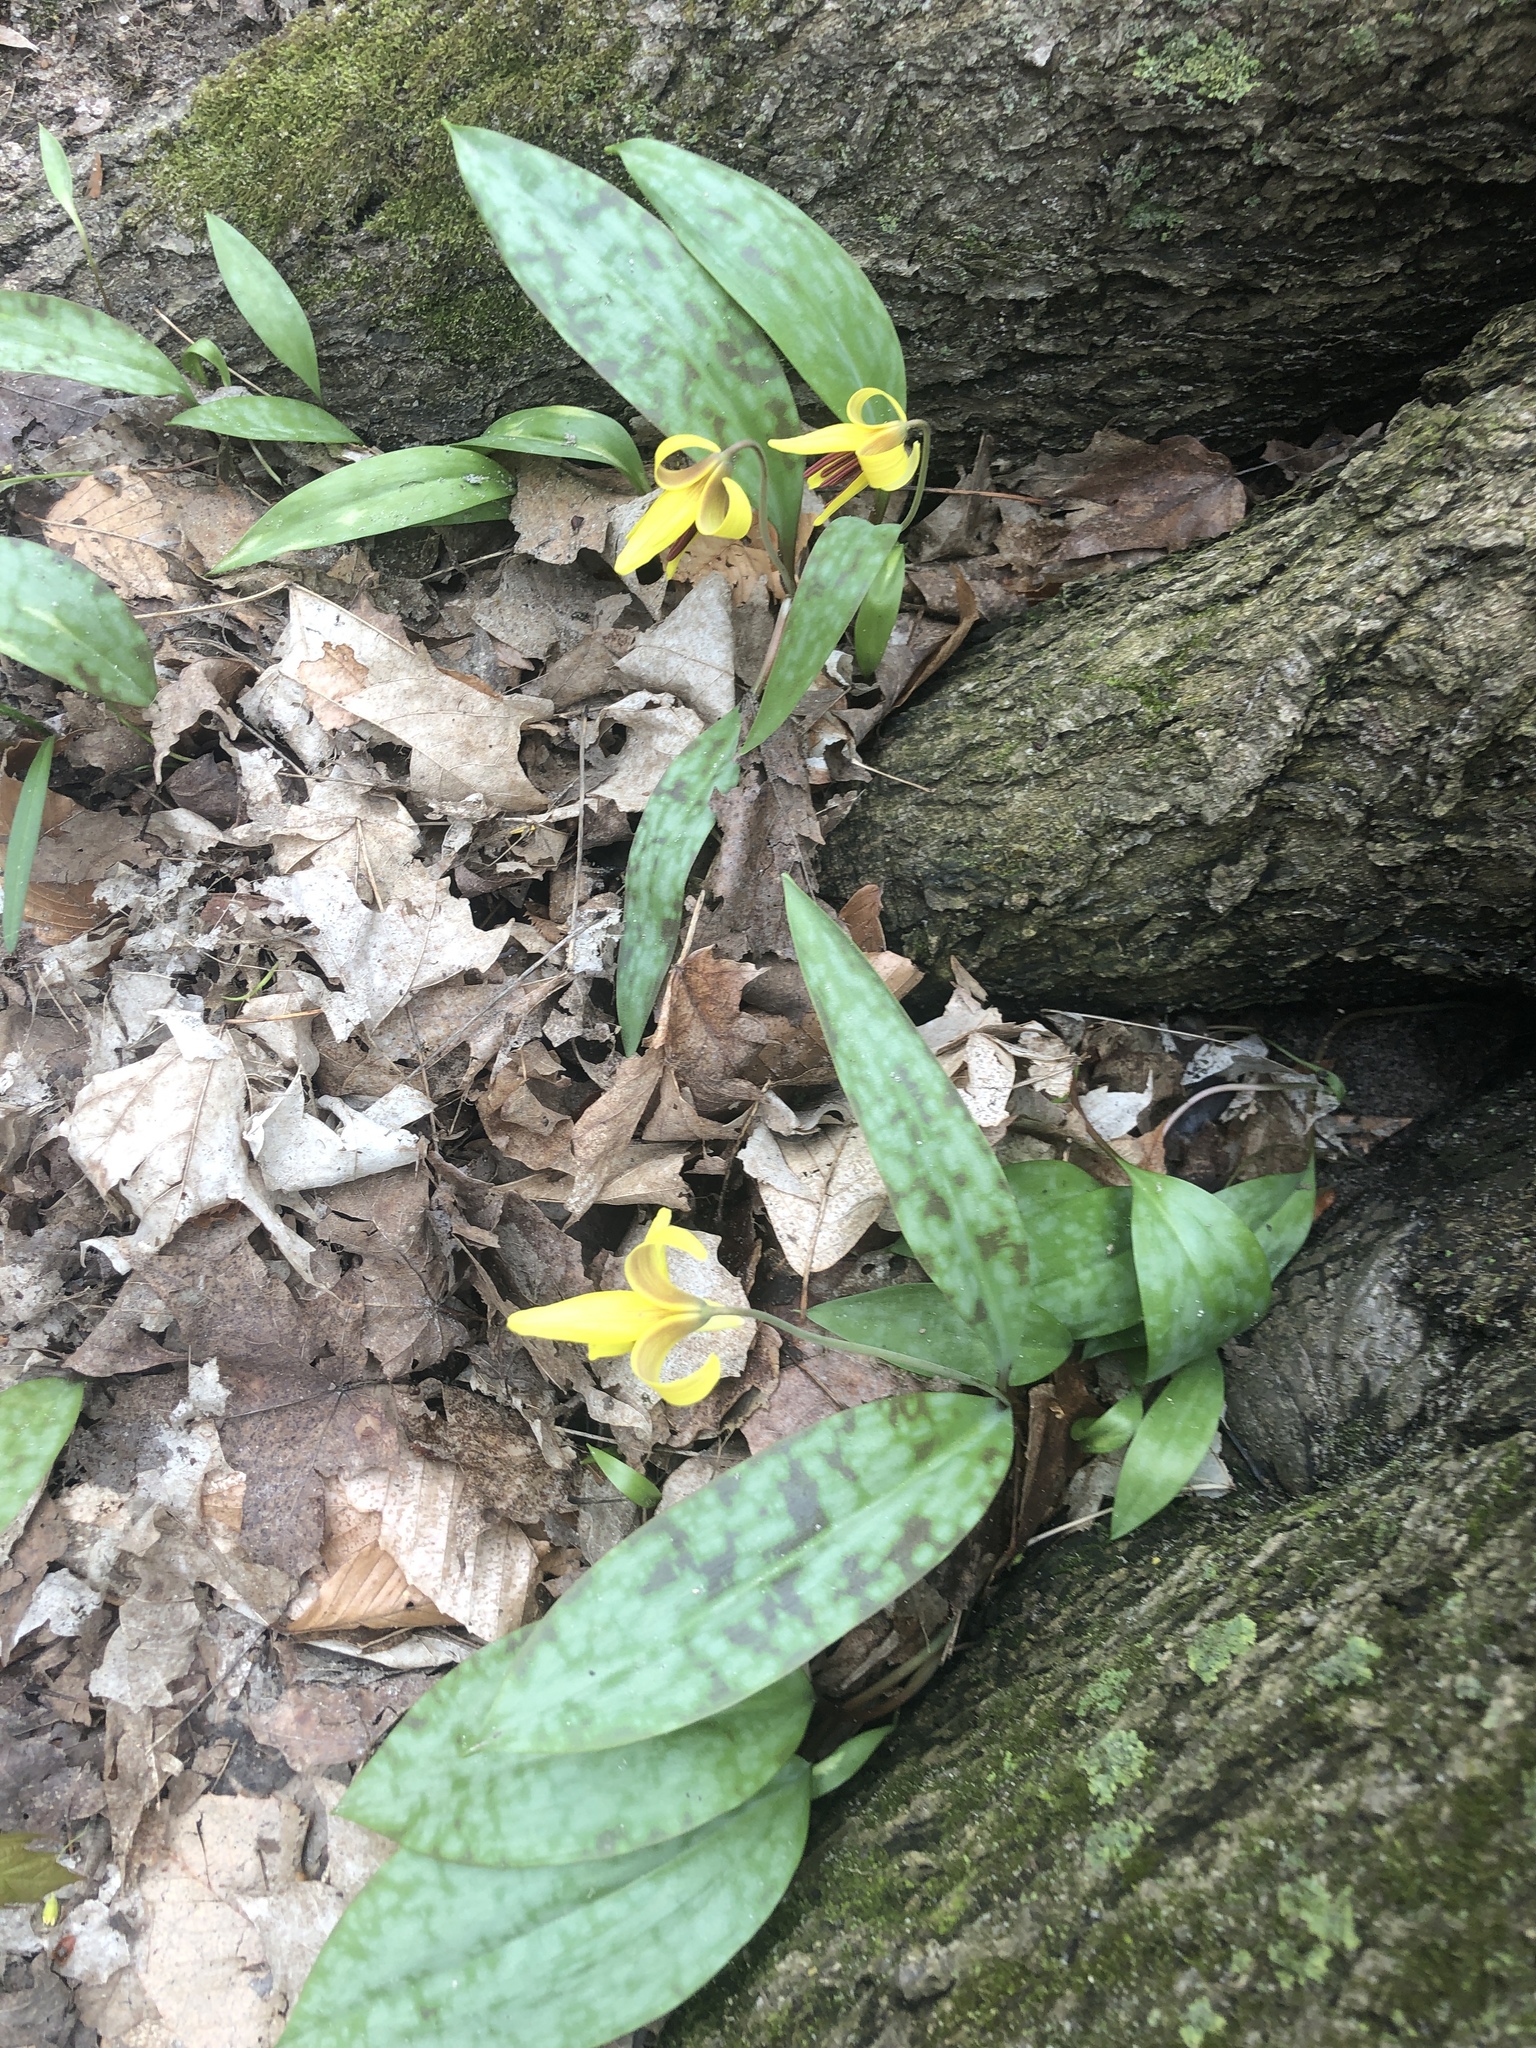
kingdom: Plantae
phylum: Tracheophyta
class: Liliopsida
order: Liliales
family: Liliaceae
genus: Erythronium
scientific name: Erythronium americanum
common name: Yellow adder's-tongue
